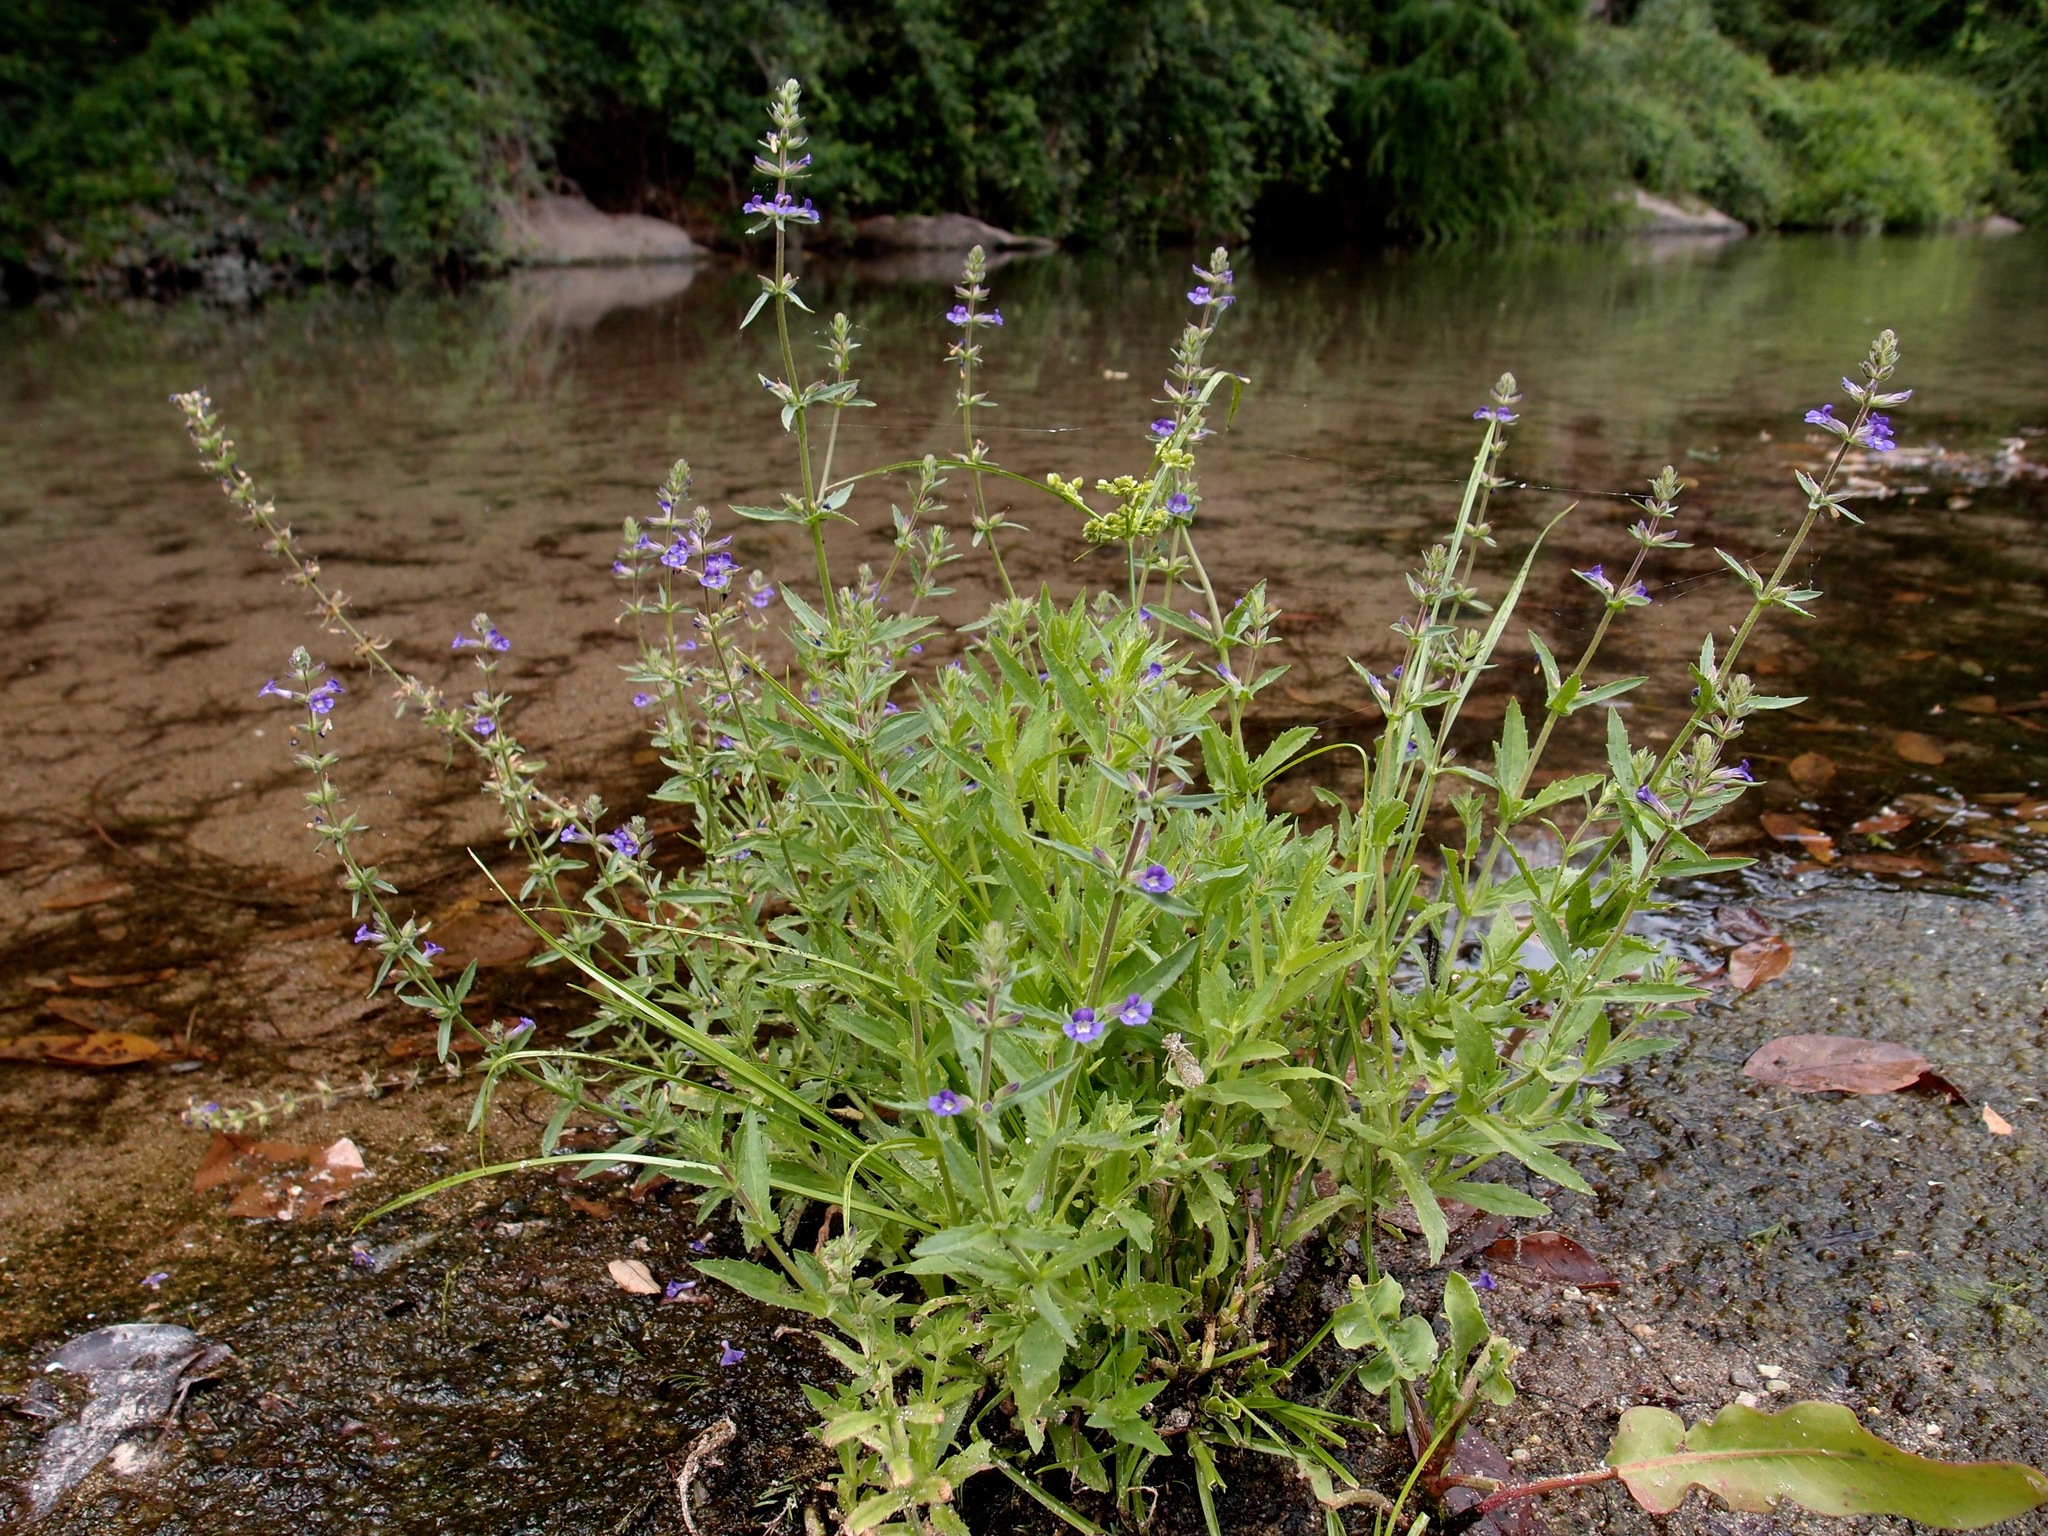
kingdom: Plantae
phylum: Tracheophyta
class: Magnoliopsida
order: Lamiales
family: Plantaginaceae
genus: Stemodia
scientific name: Stemodia durantifolia
